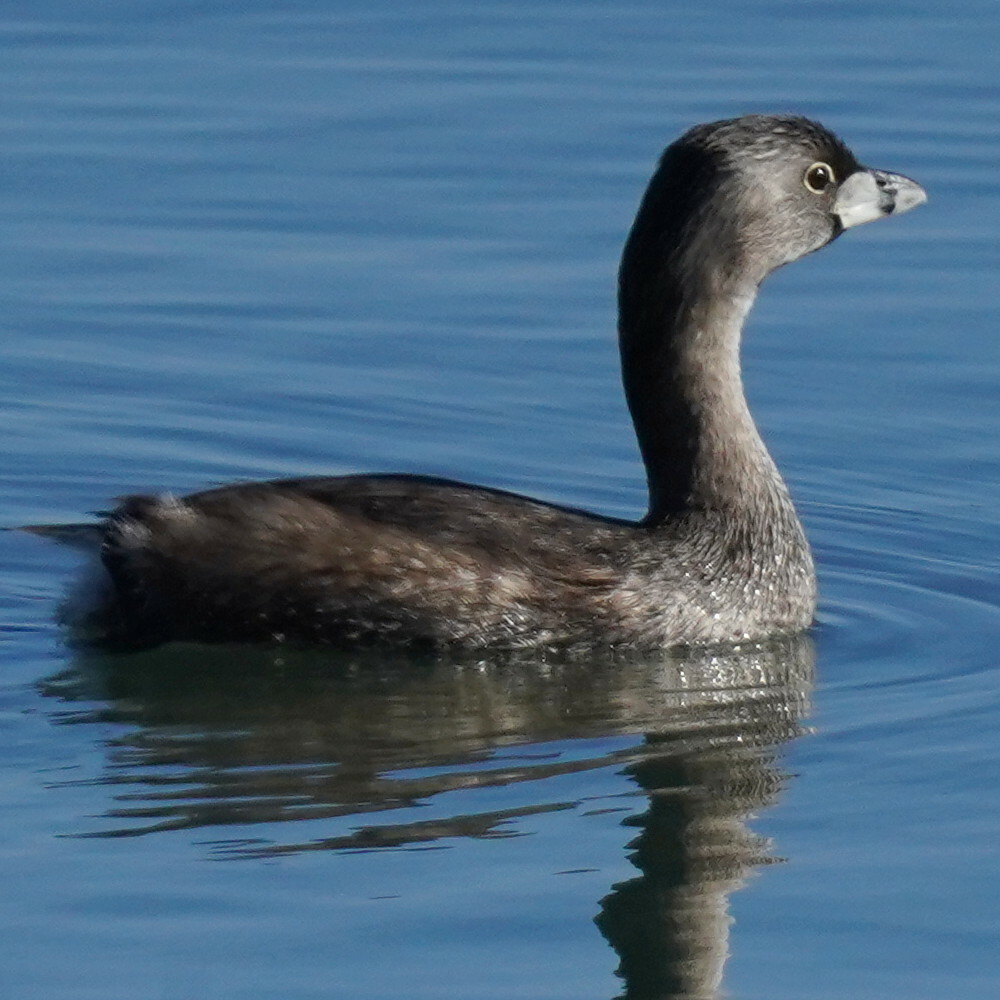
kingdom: Animalia
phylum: Chordata
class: Aves
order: Podicipediformes
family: Podicipedidae
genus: Podilymbus
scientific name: Podilymbus podiceps
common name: Pied-billed grebe
